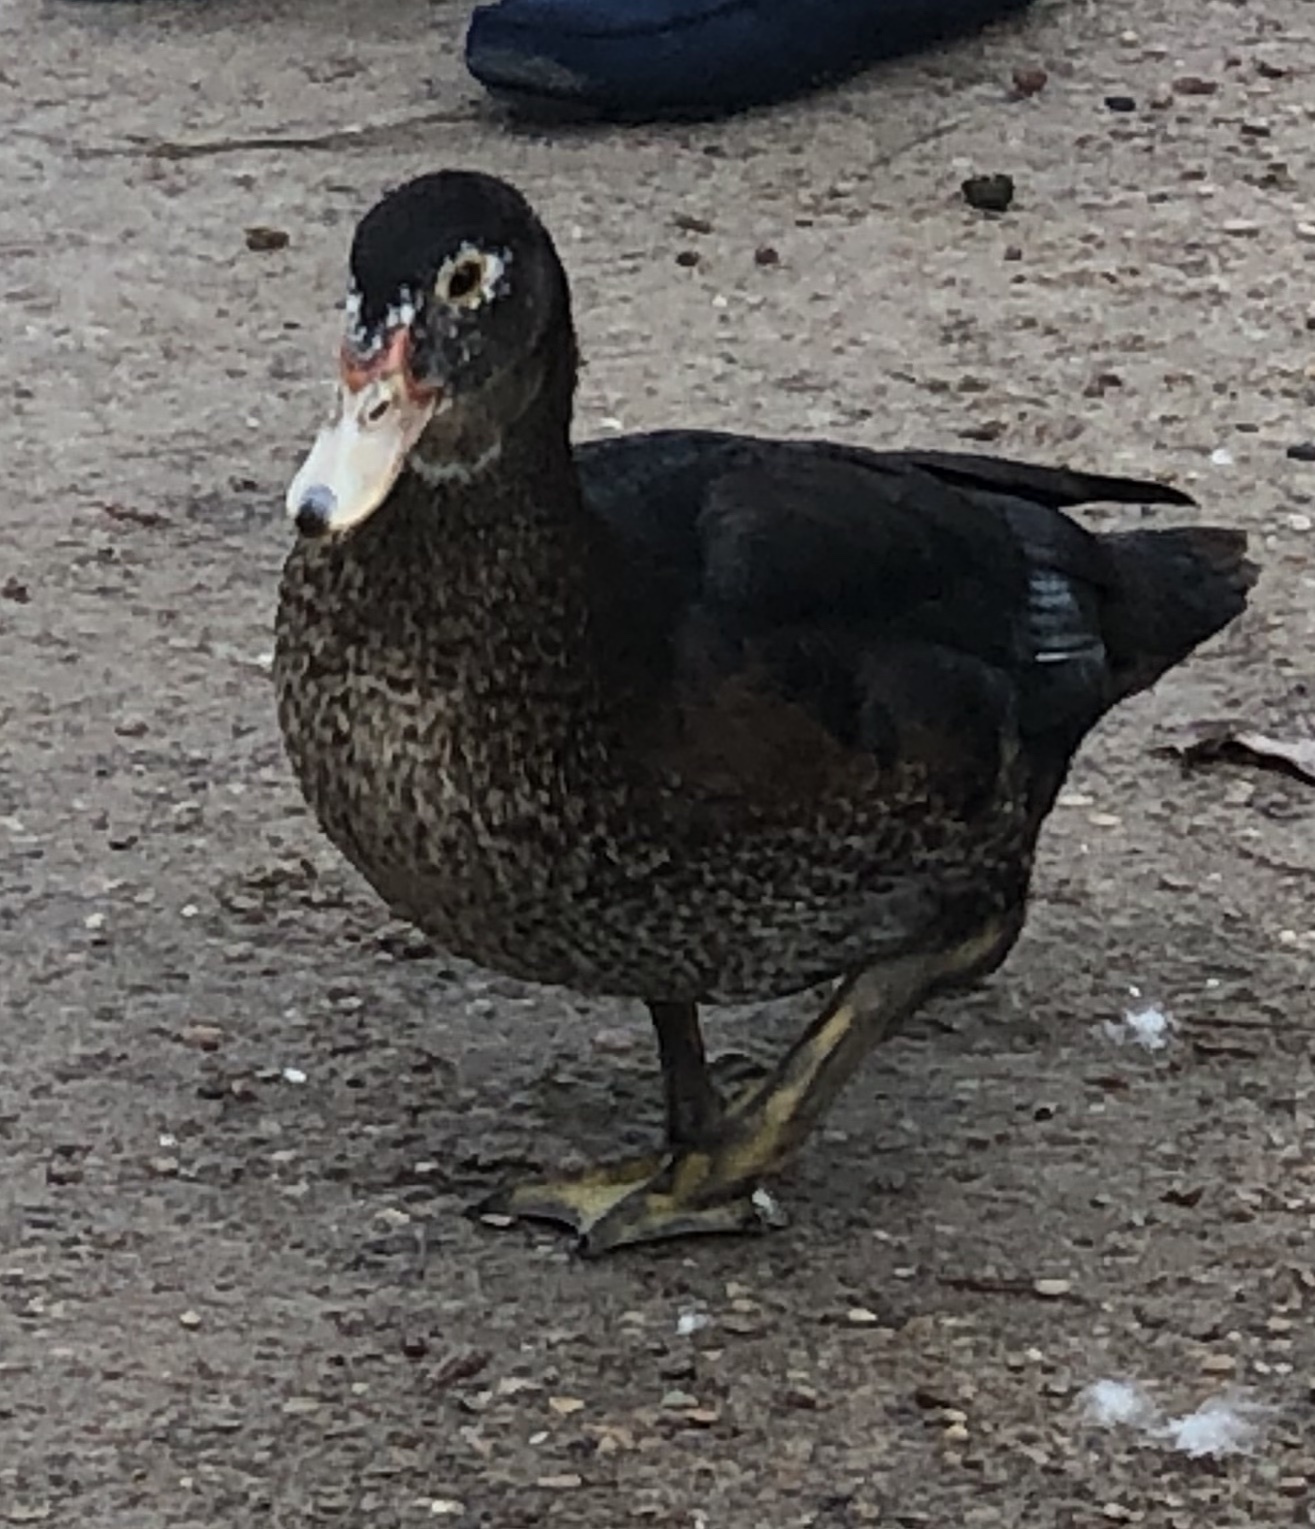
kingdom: Animalia
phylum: Chordata
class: Aves
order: Anseriformes
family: Anatidae
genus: Cairina
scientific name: Cairina moschata
